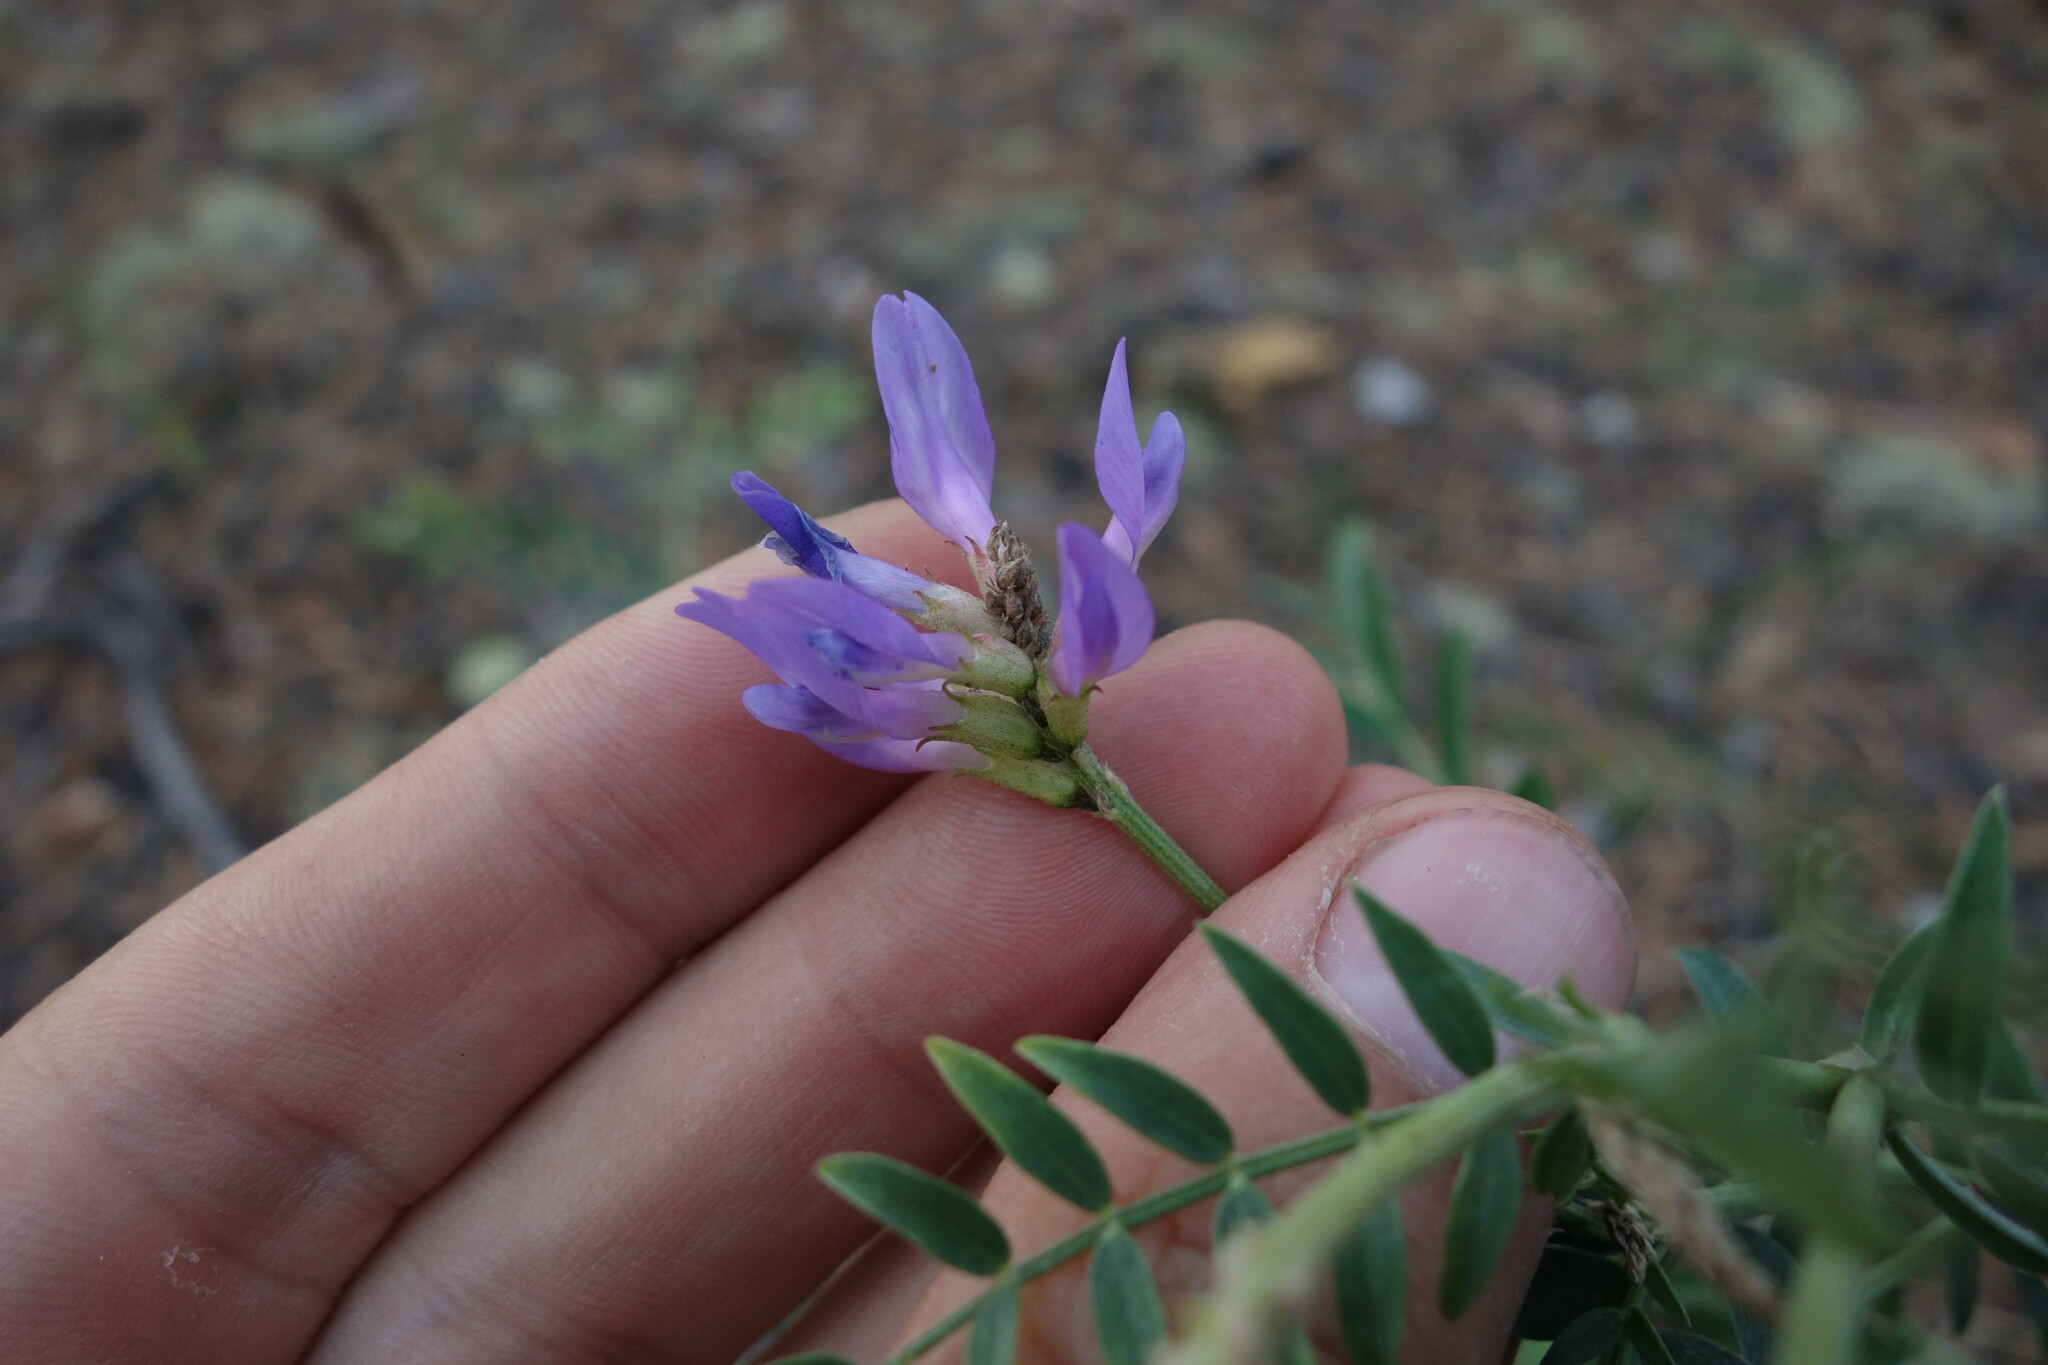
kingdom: Plantae
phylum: Tracheophyta
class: Magnoliopsida
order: Fabales
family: Fabaceae
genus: Astragalus
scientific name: Astragalus laxmannii
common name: Laxmann's milk-vetch
